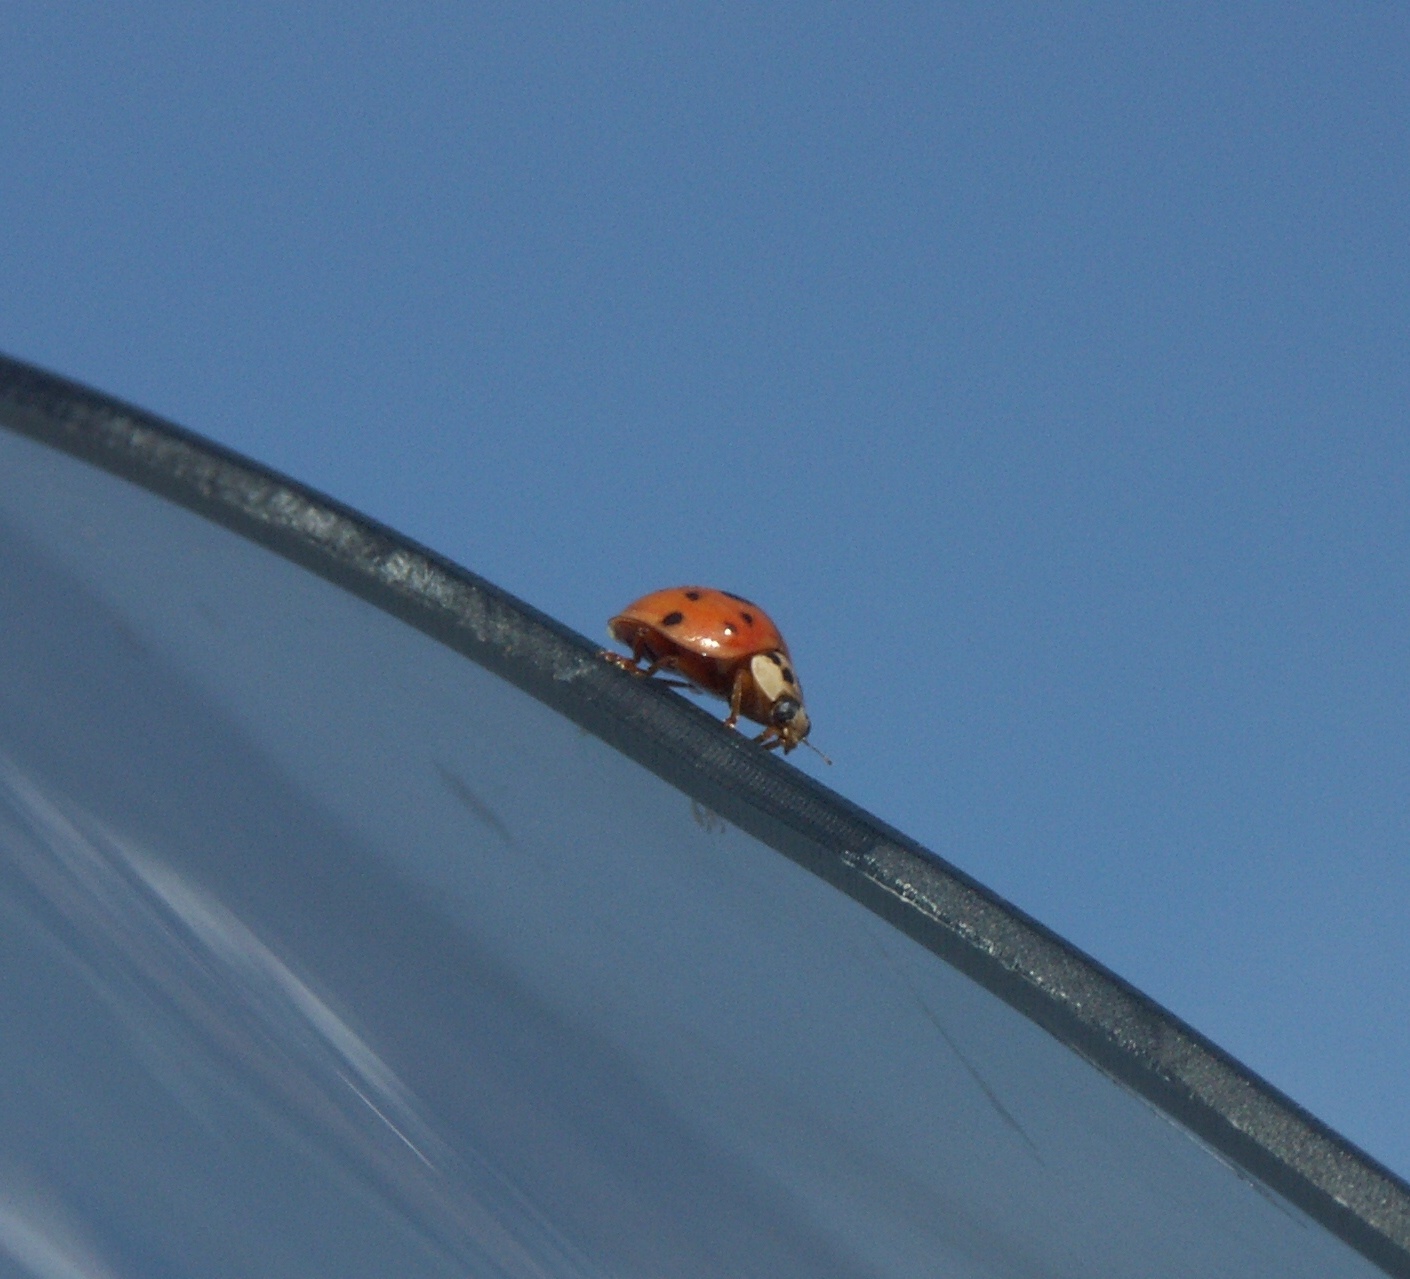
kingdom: Animalia
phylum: Arthropoda
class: Insecta
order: Coleoptera
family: Coccinellidae
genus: Harmonia
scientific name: Harmonia axyridis
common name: Harlequin ladybird
